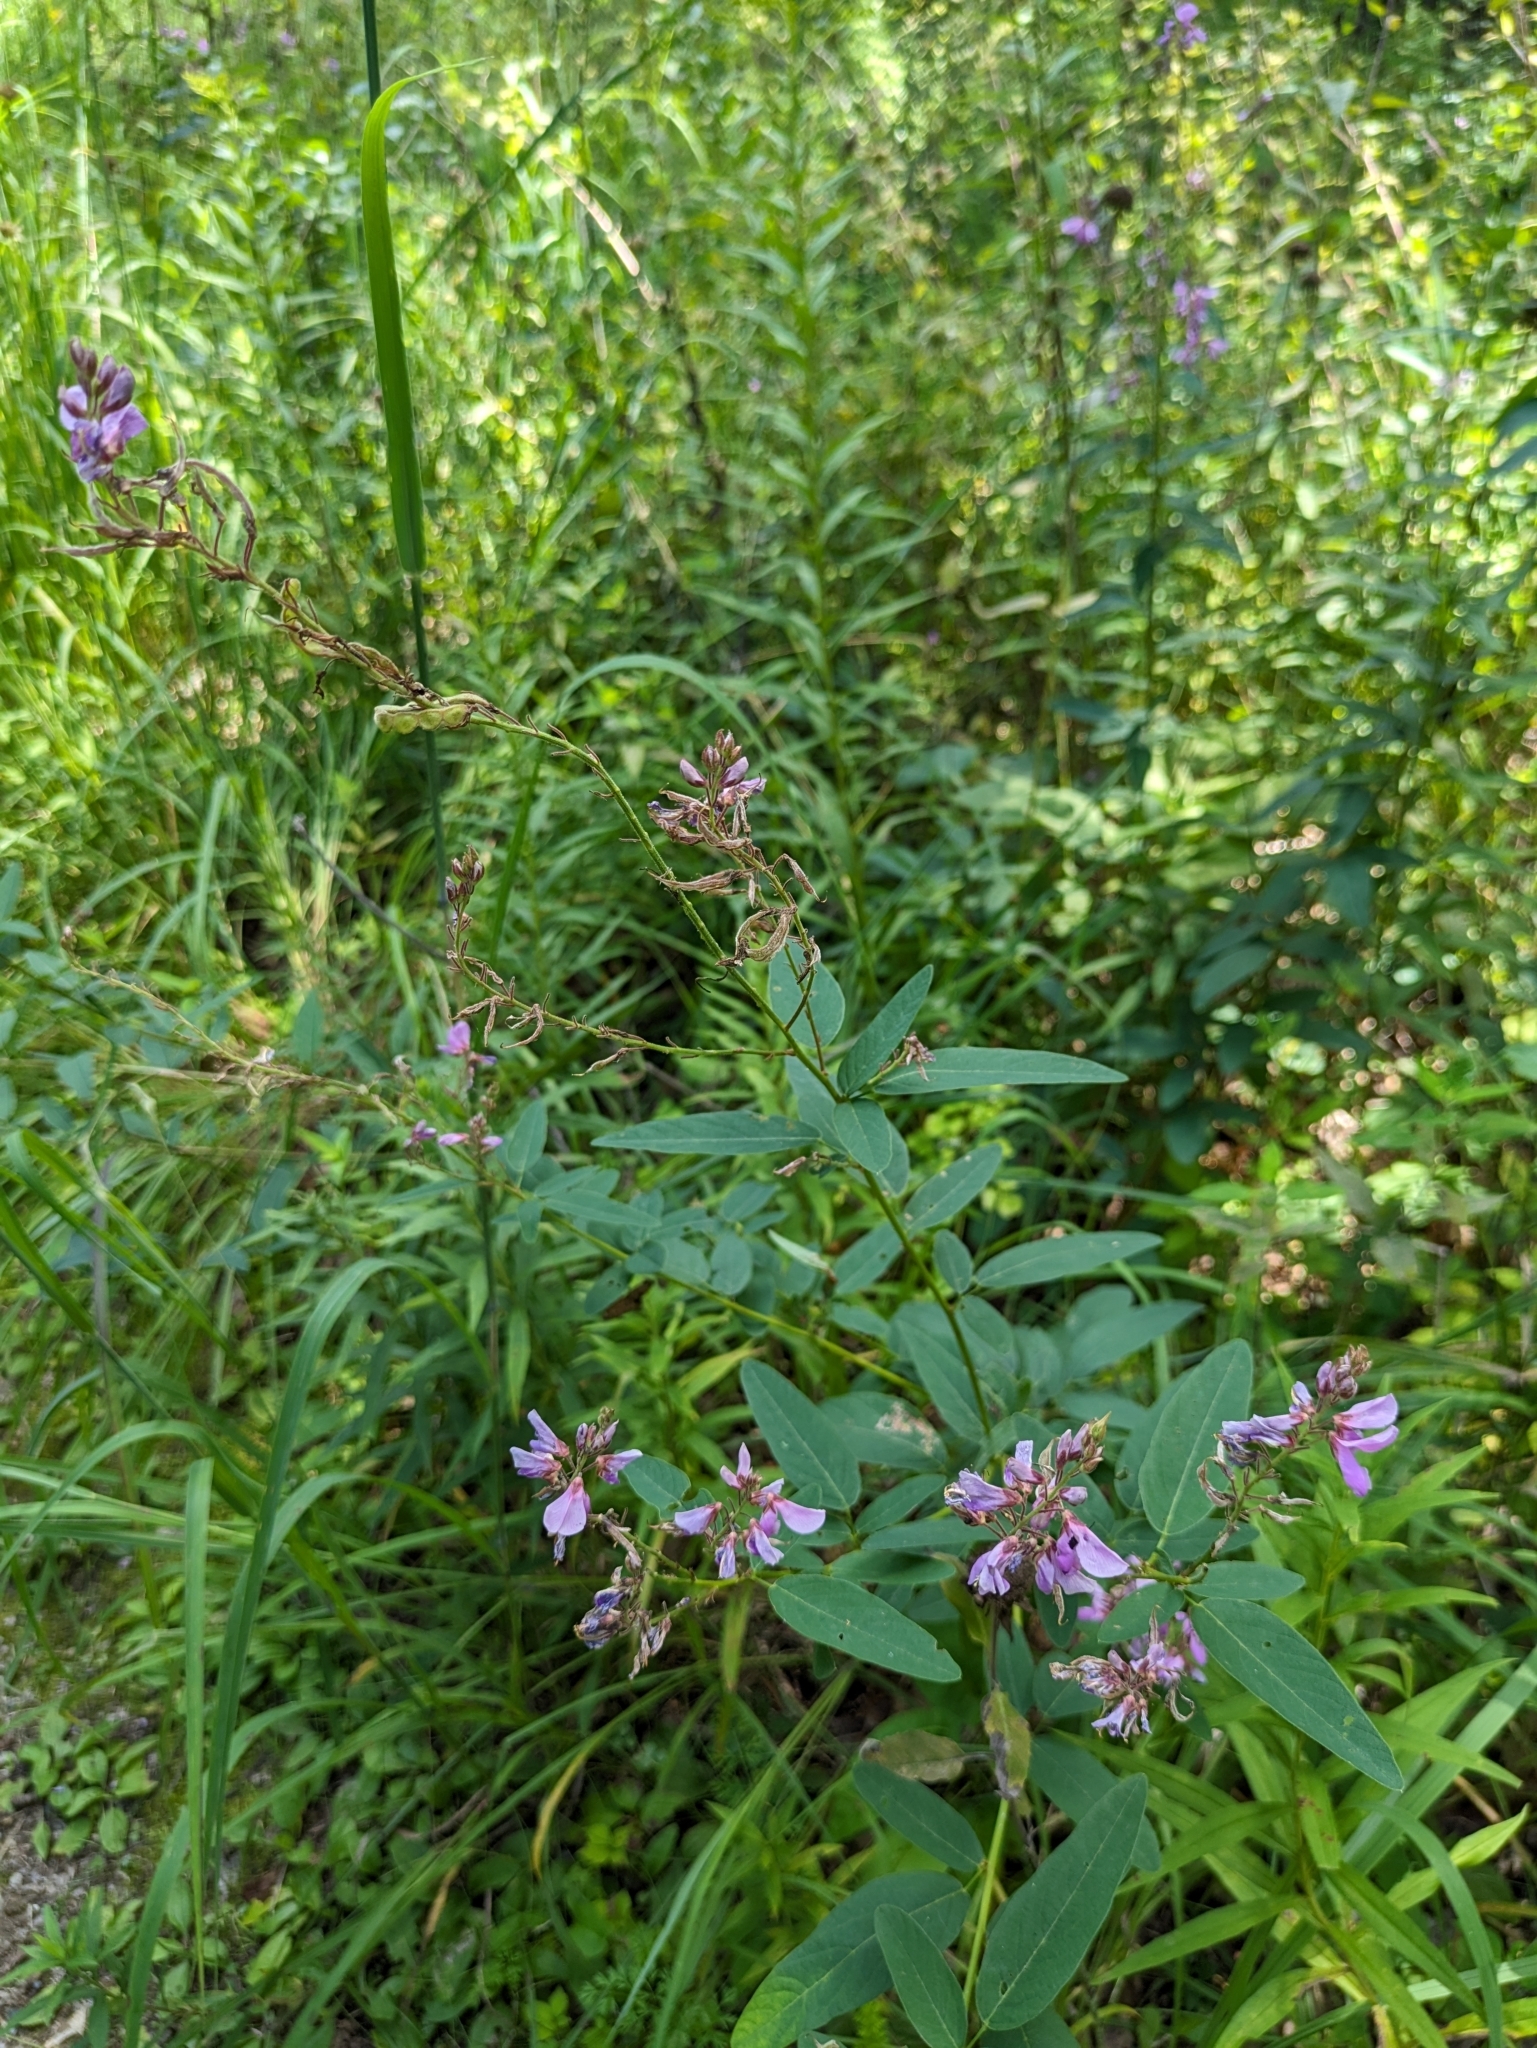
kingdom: Plantae
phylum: Tracheophyta
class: Magnoliopsida
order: Fabales
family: Fabaceae
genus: Desmodium
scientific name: Desmodium canadense
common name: Canada tick-trefoil
